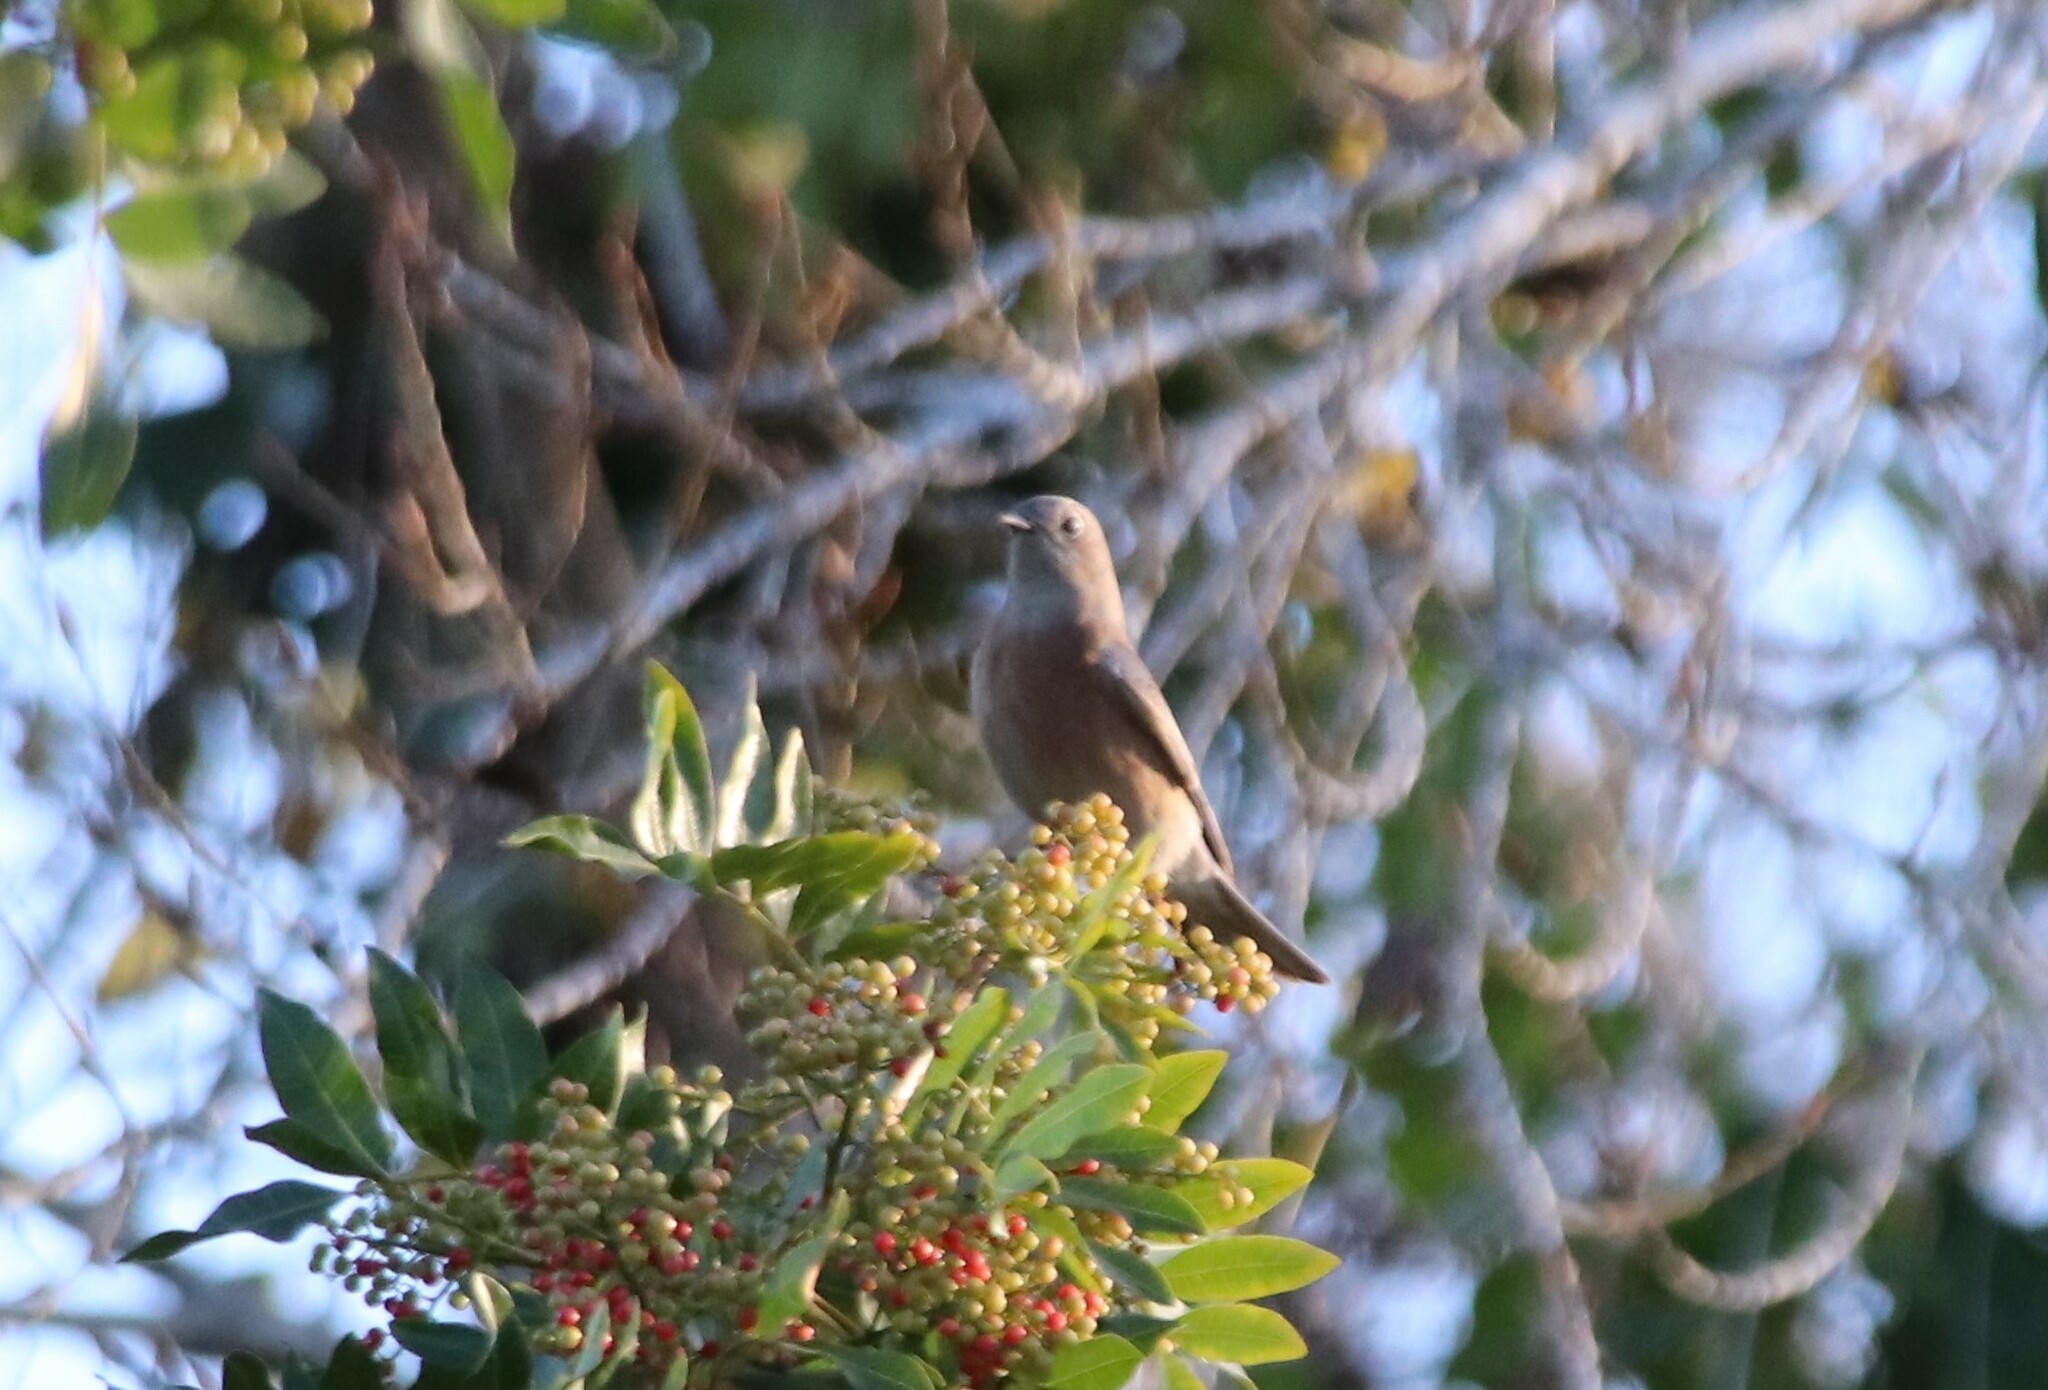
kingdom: Animalia
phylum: Chordata
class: Aves
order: Passeriformes
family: Turdidae
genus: Sialia
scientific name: Sialia mexicana
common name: Western bluebird
